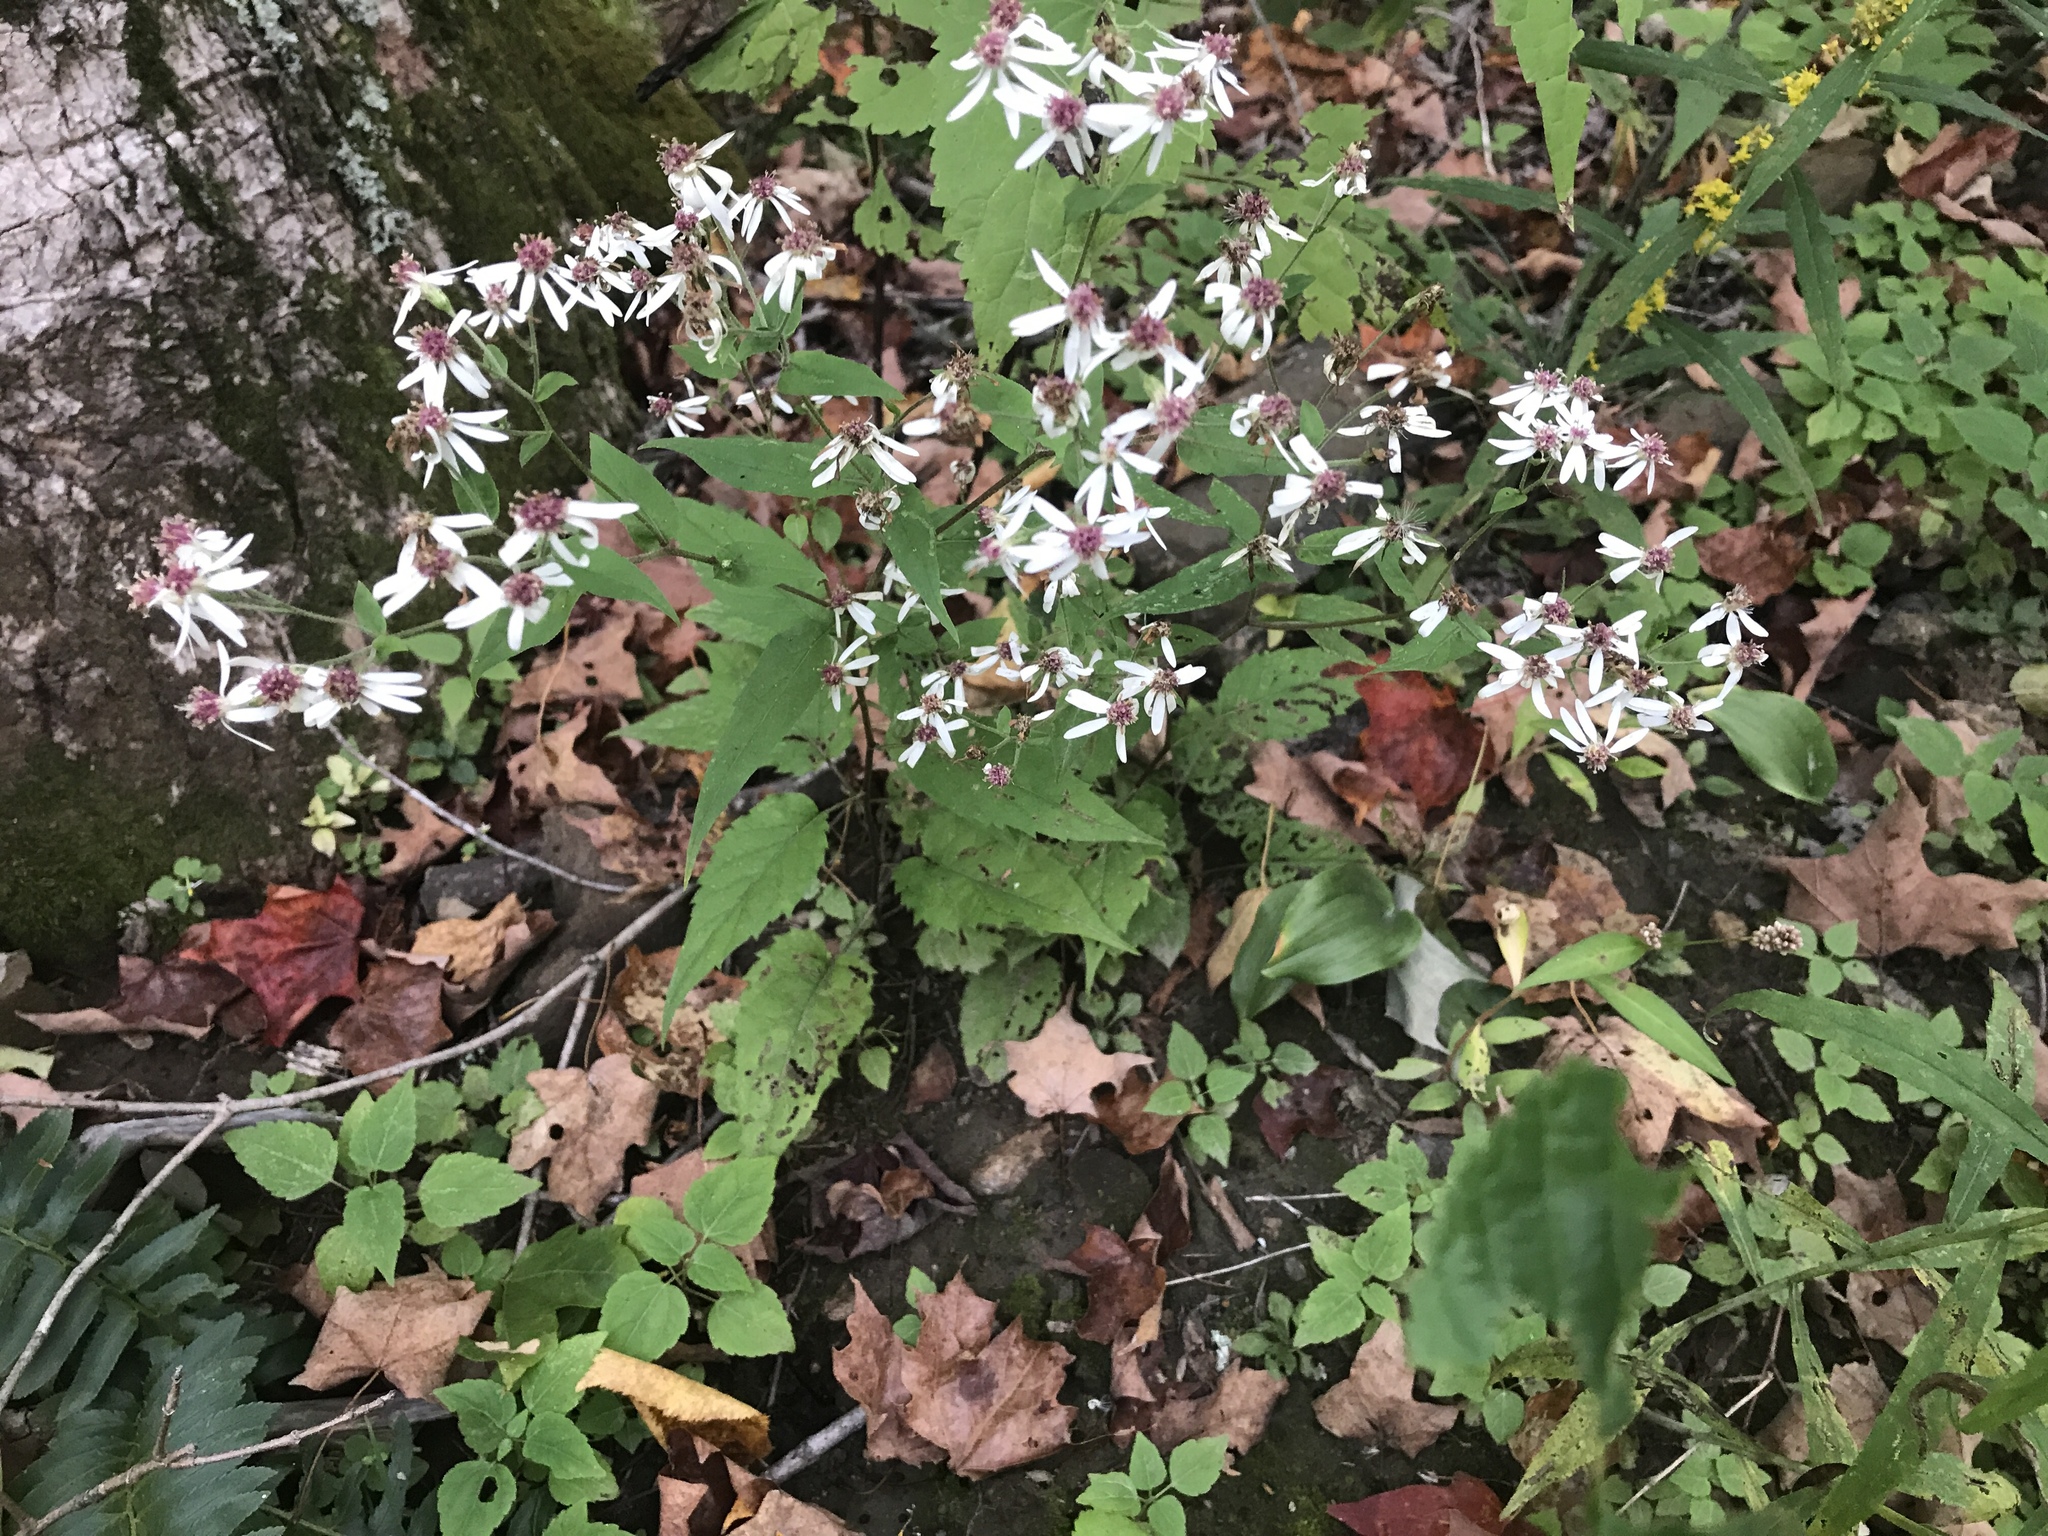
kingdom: Plantae
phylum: Tracheophyta
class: Magnoliopsida
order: Asterales
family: Asteraceae
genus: Eurybia
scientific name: Eurybia divaricata
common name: White wood aster
